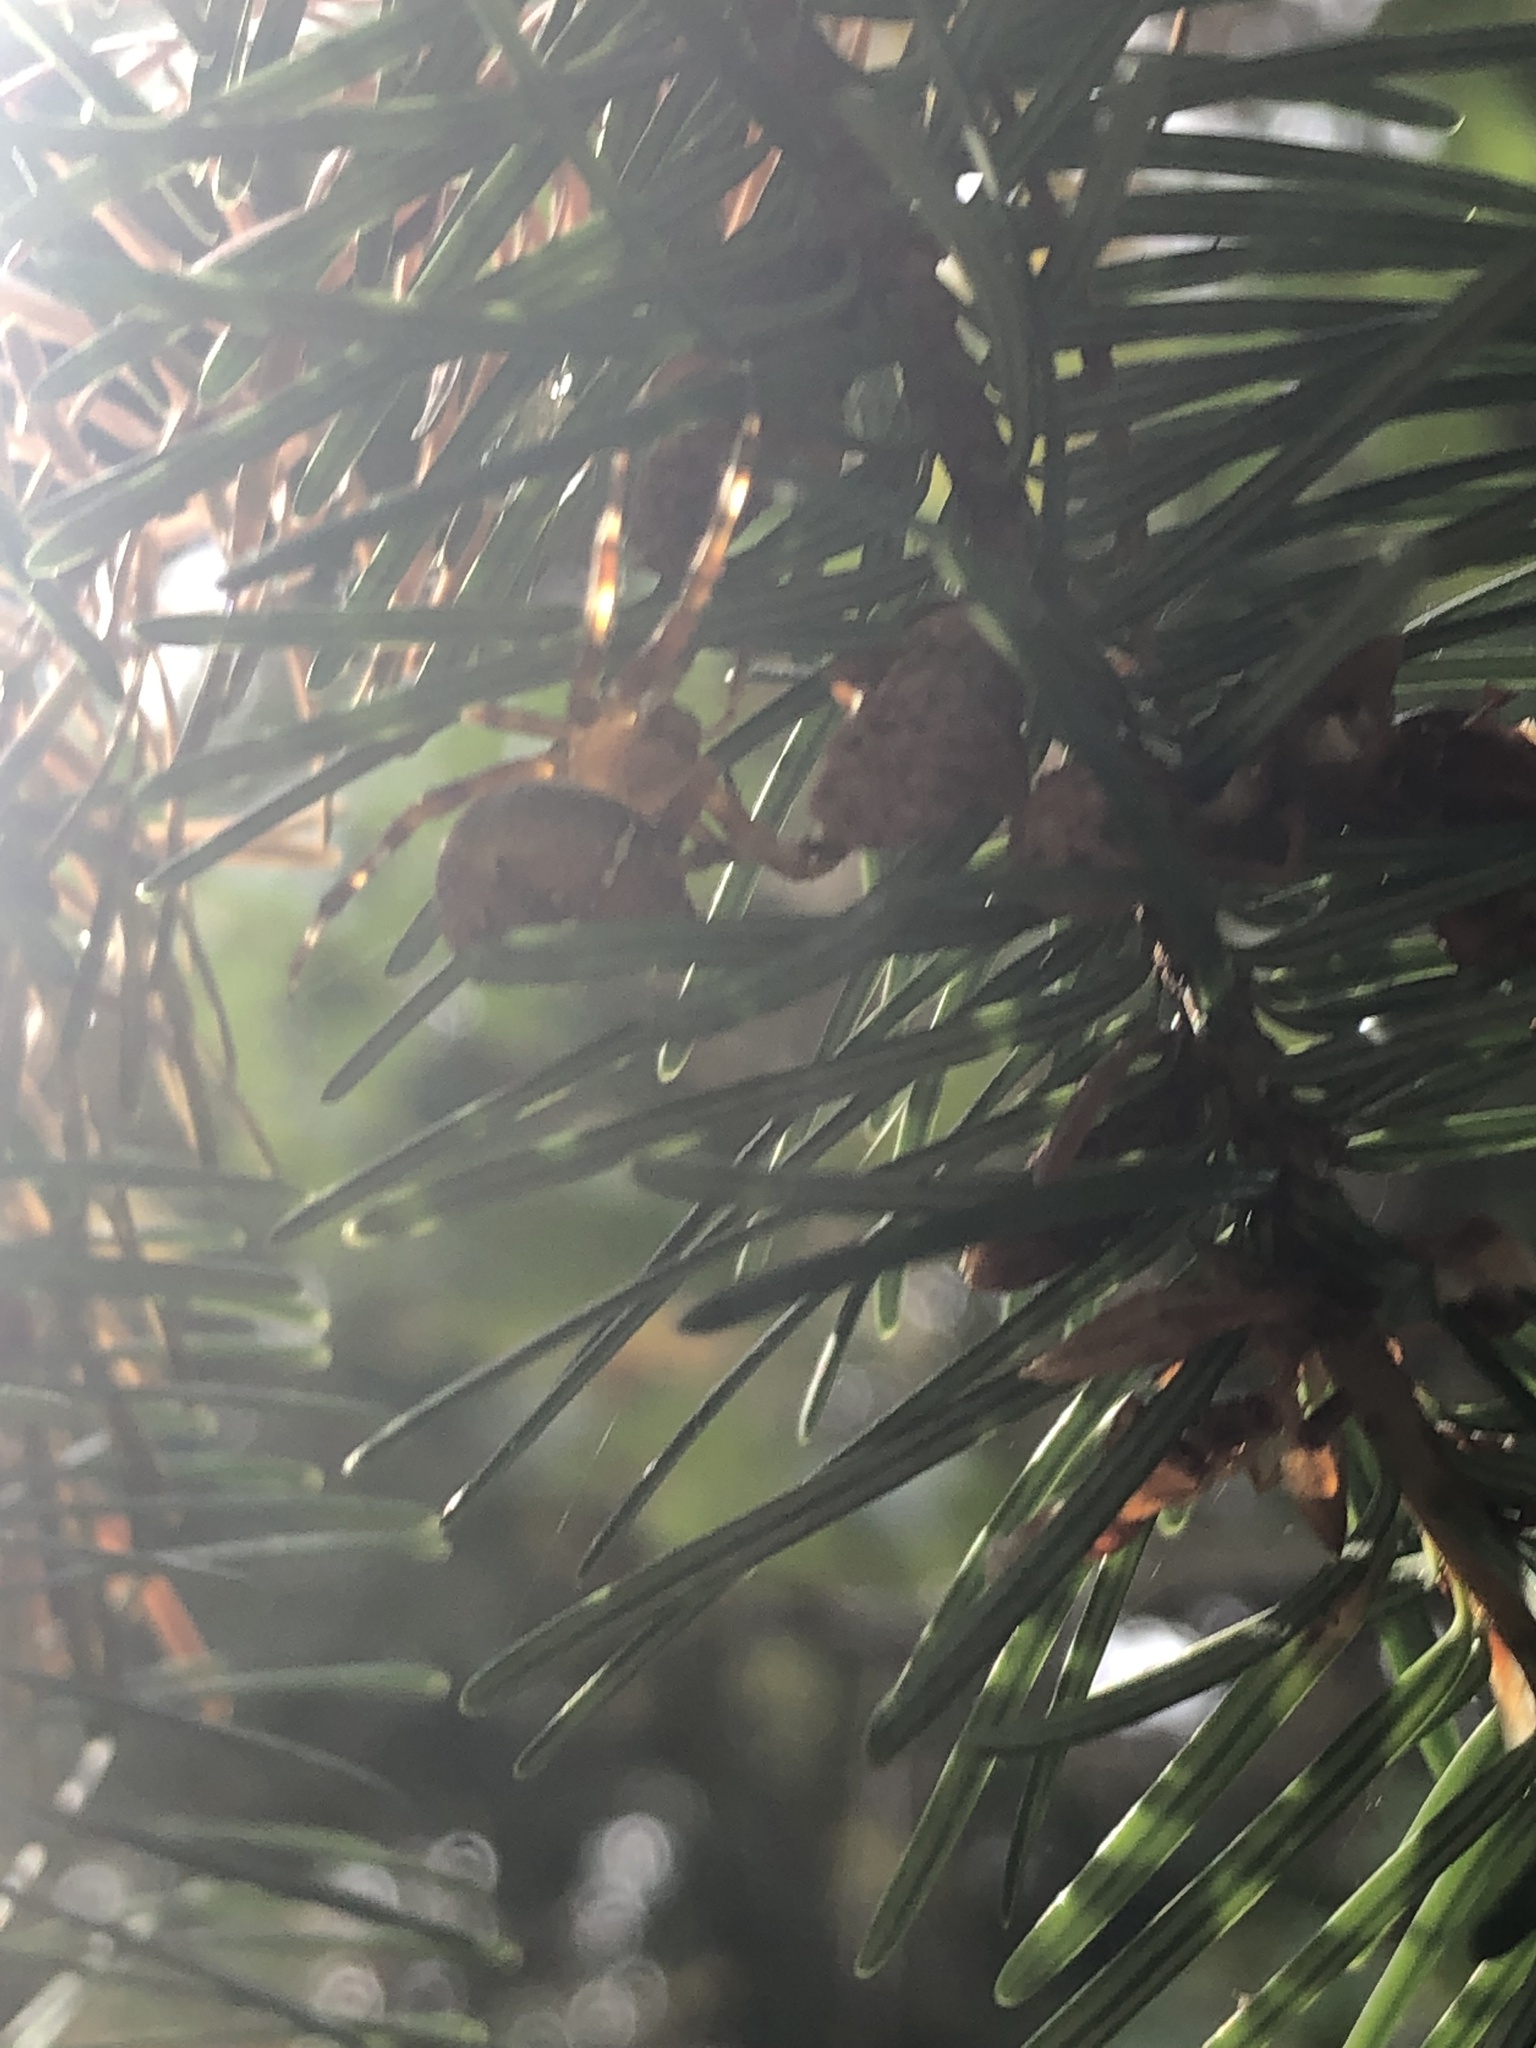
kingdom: Animalia
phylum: Arthropoda
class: Arachnida
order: Araneae
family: Araneidae
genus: Araneus
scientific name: Araneus diadematus
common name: Cross orbweaver
